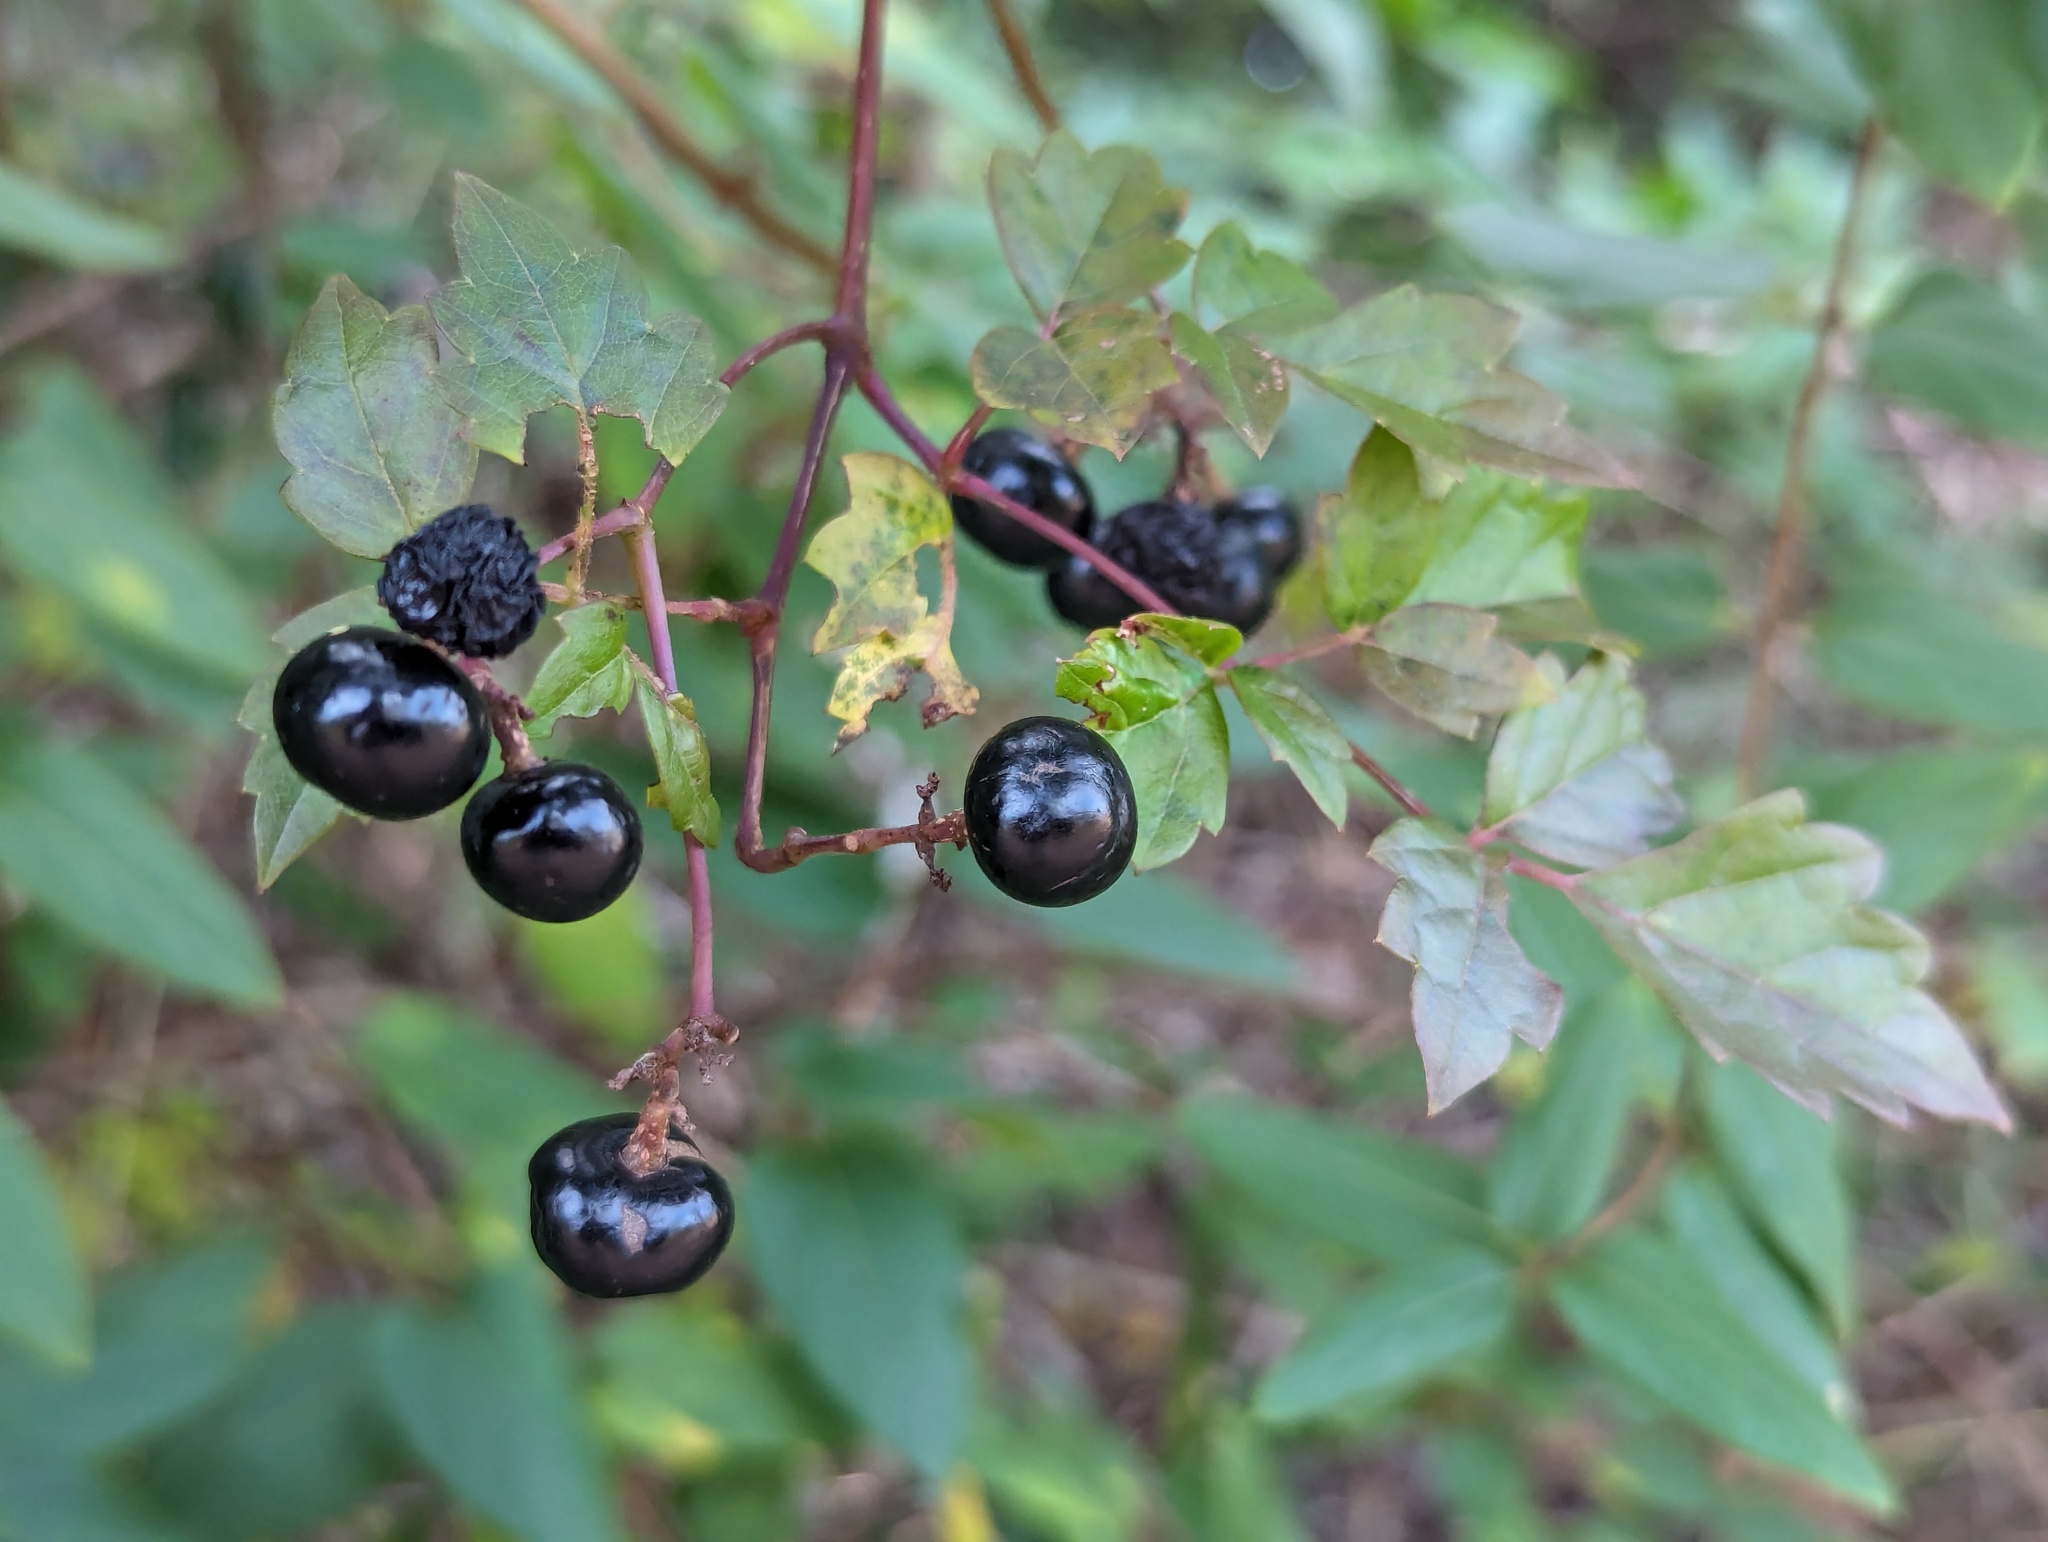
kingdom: Plantae
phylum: Tracheophyta
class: Magnoliopsida
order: Vitales
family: Vitaceae
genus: Nekemias
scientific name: Nekemias arborea
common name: Peppervine
